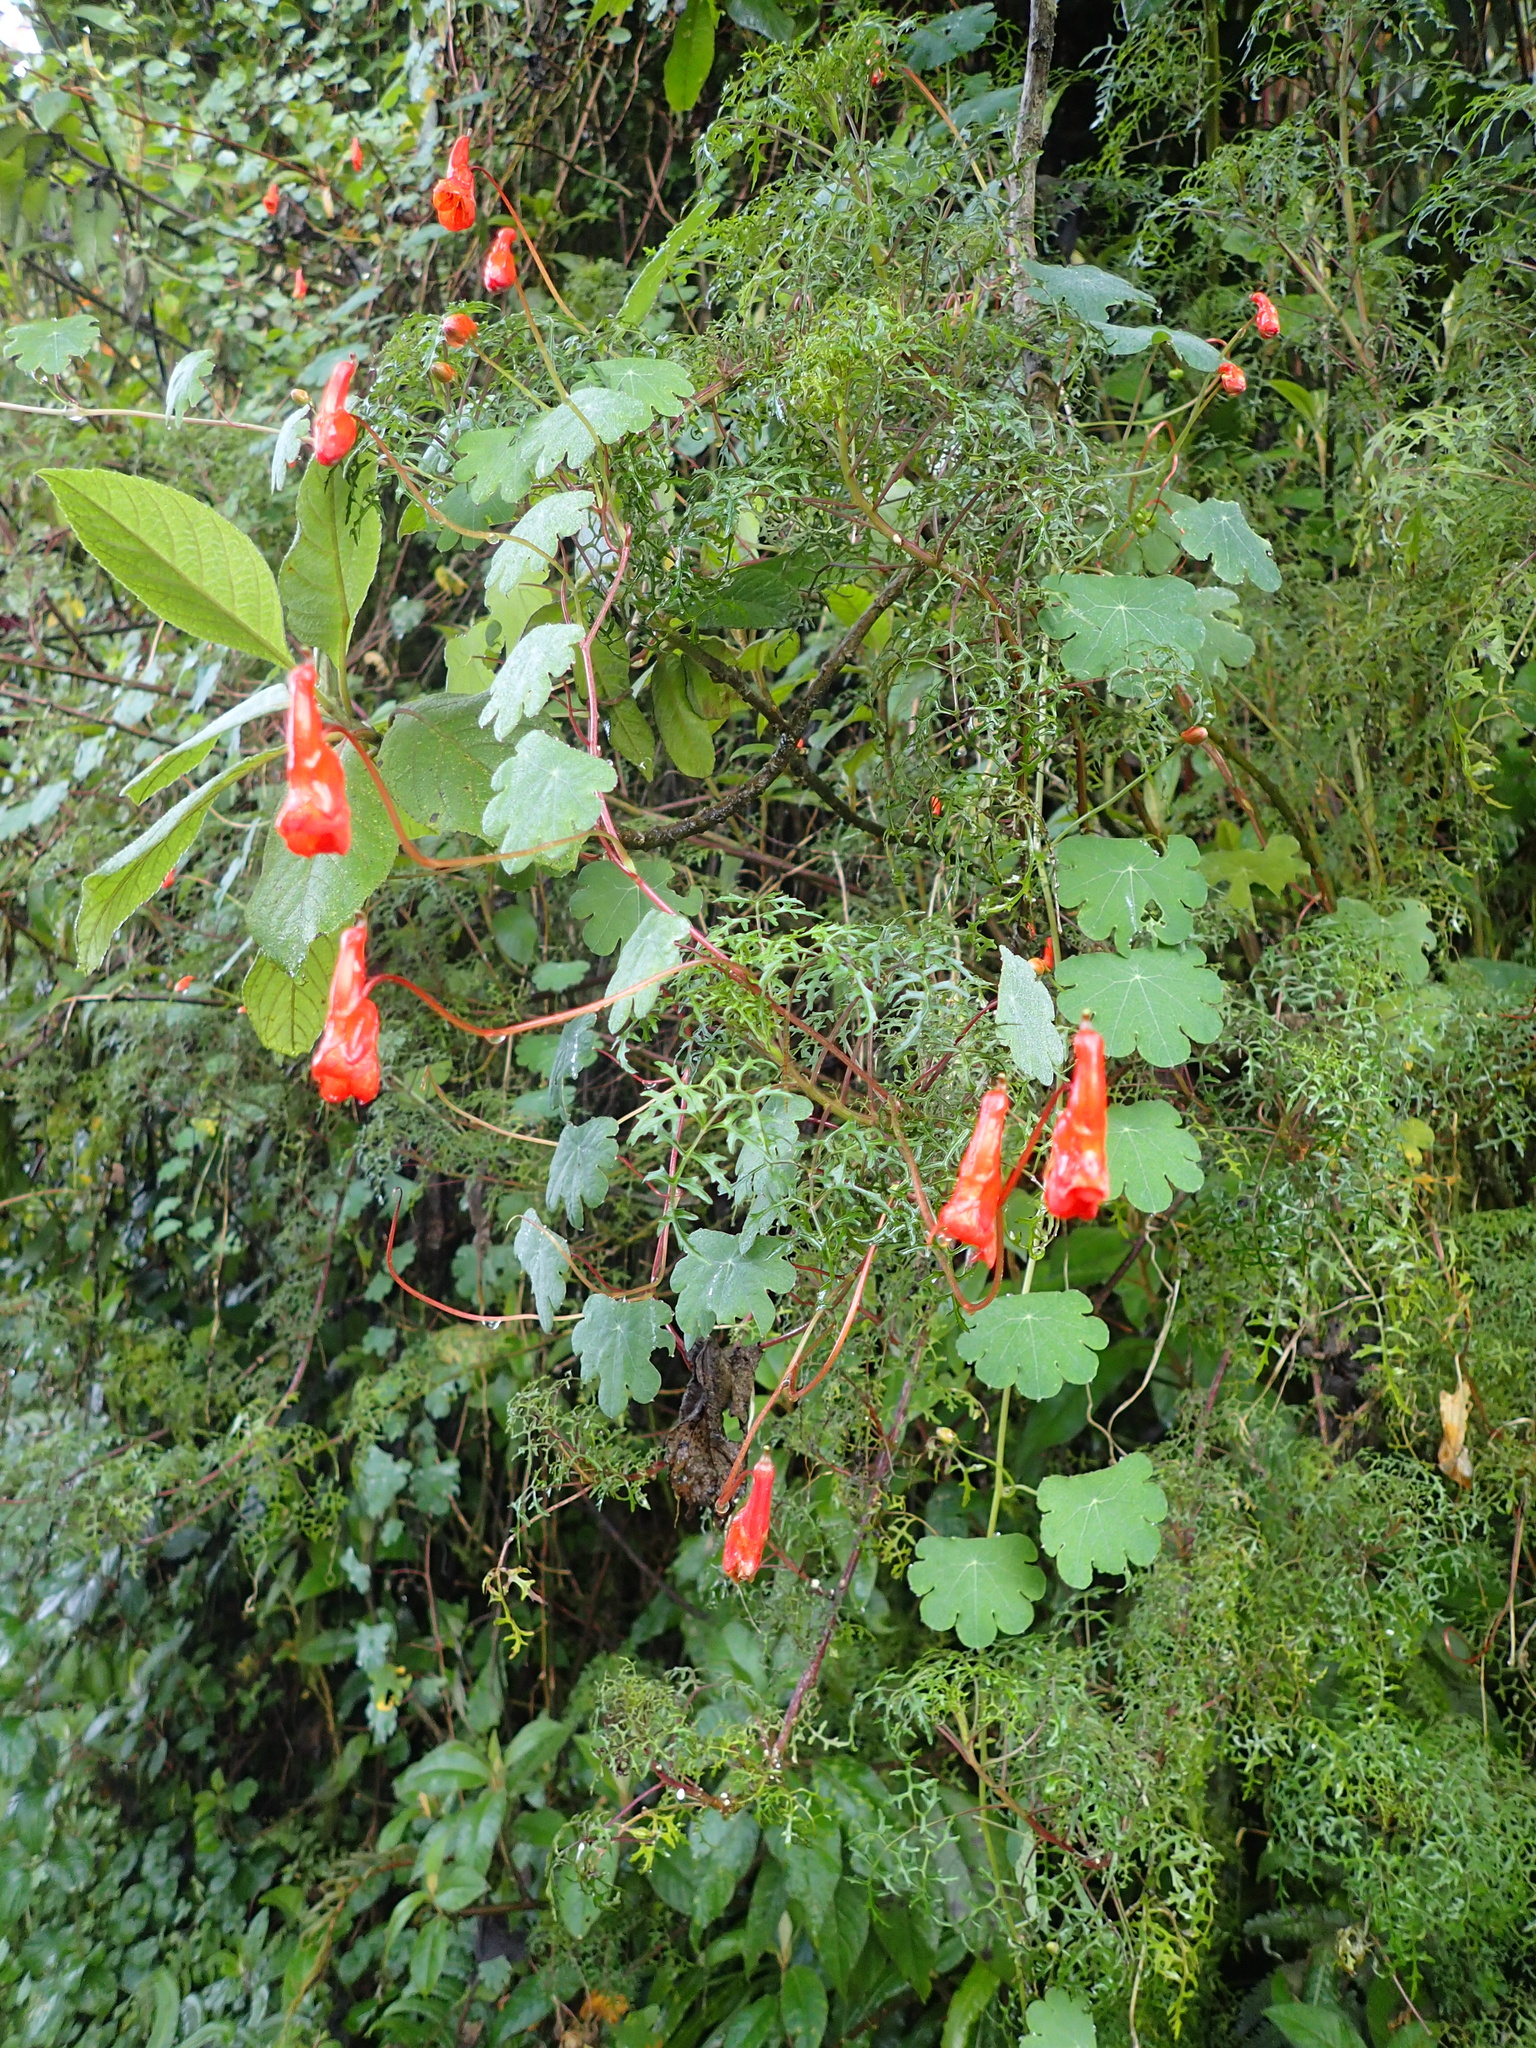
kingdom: Plantae
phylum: Tracheophyta
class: Magnoliopsida
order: Brassicales
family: Tropaeolaceae
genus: Tropaeolum
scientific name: Tropaeolum tuberosum
